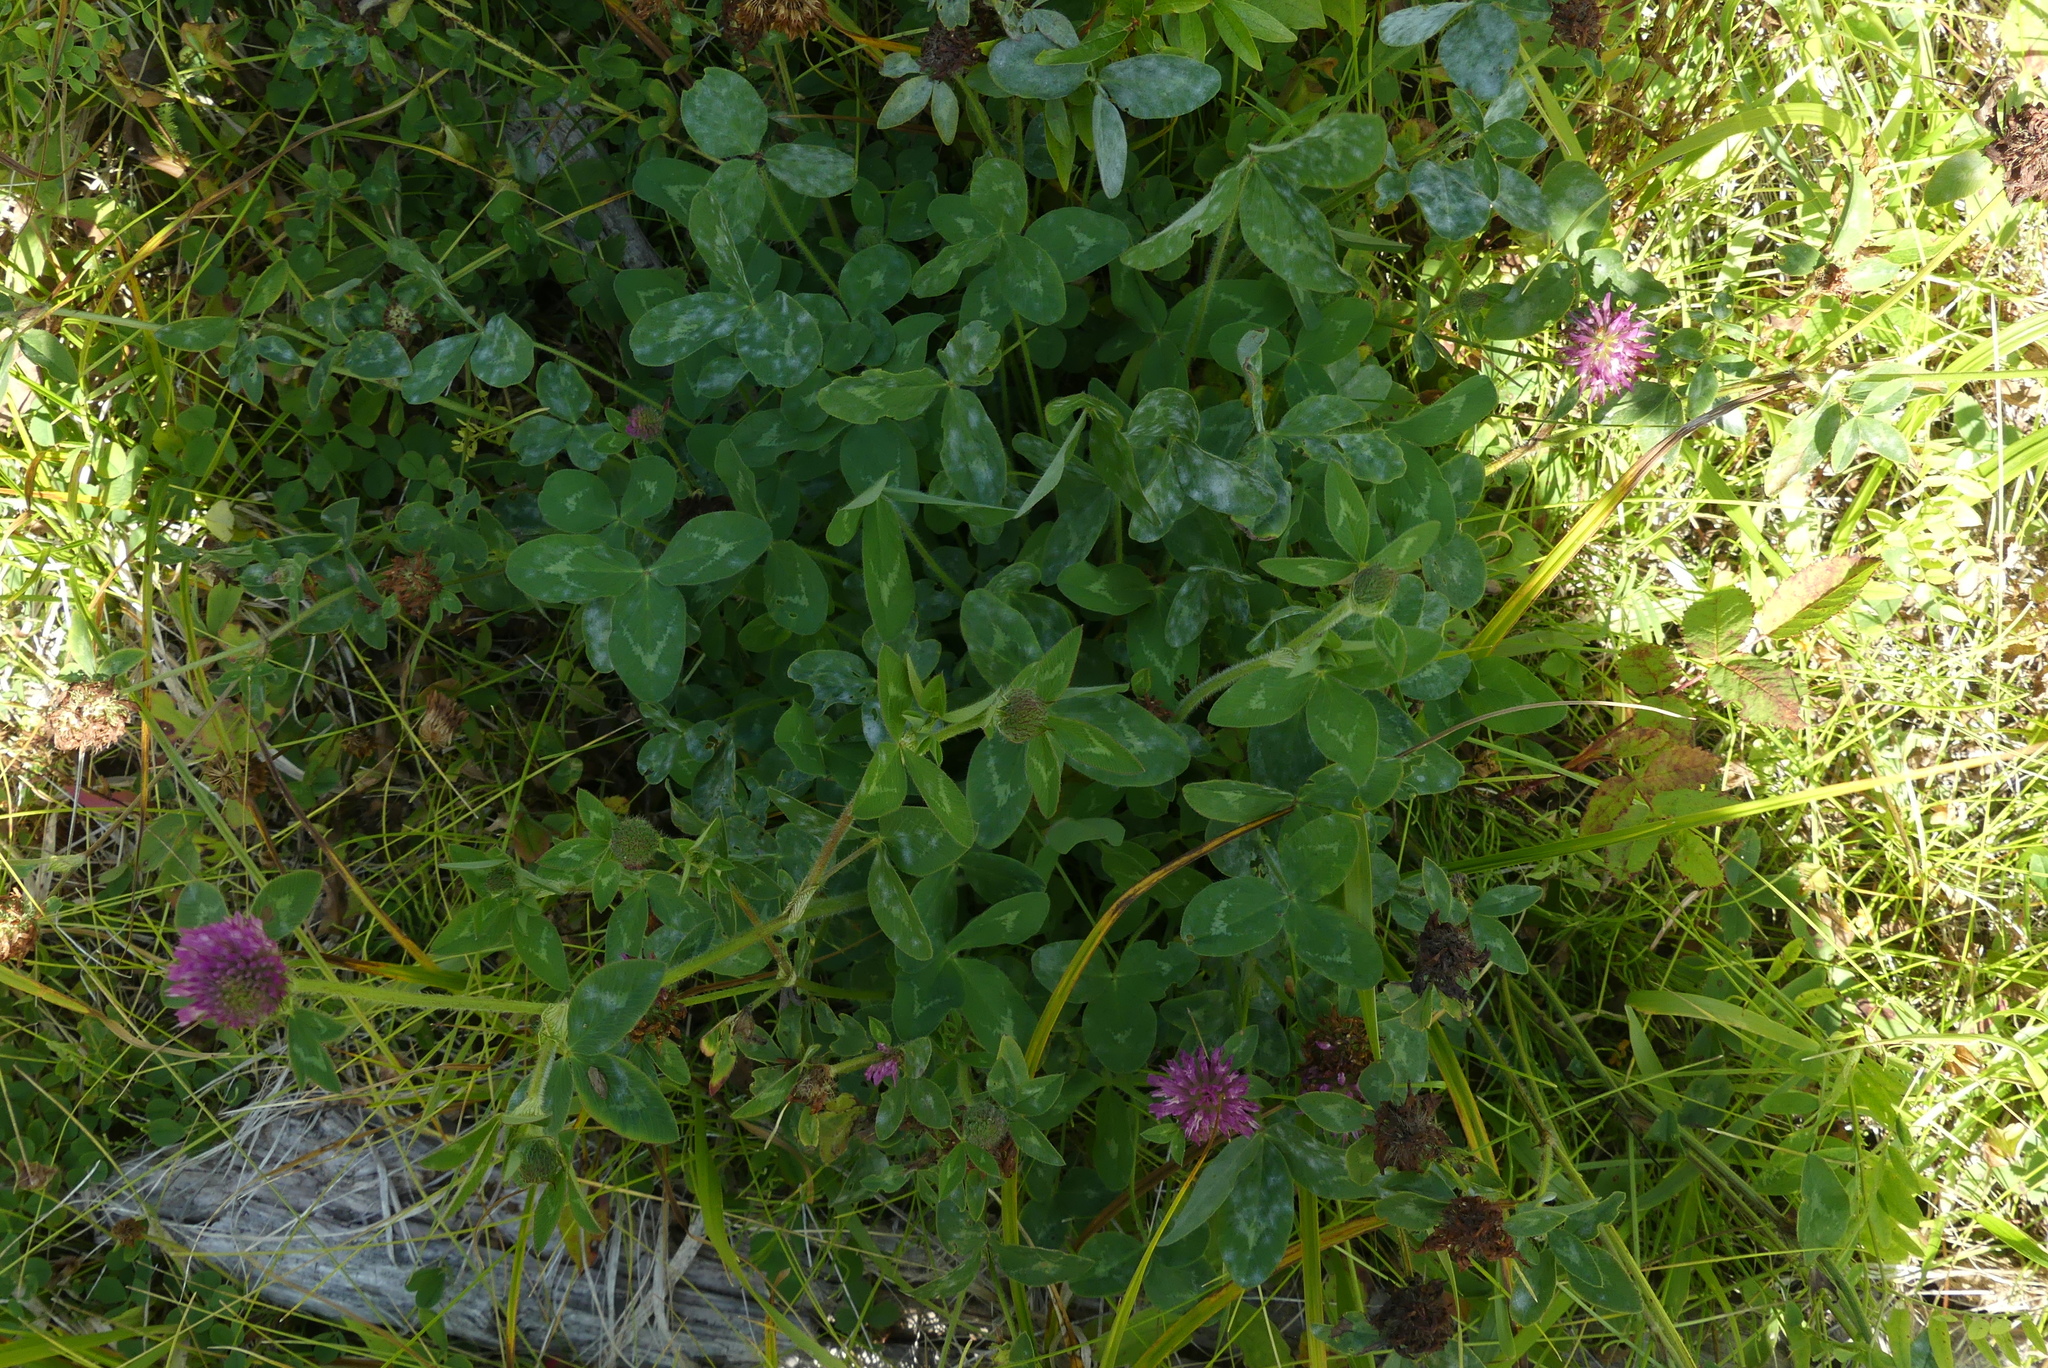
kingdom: Plantae
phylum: Tracheophyta
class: Magnoliopsida
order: Fabales
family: Fabaceae
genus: Trifolium
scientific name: Trifolium pratense
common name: Red clover
